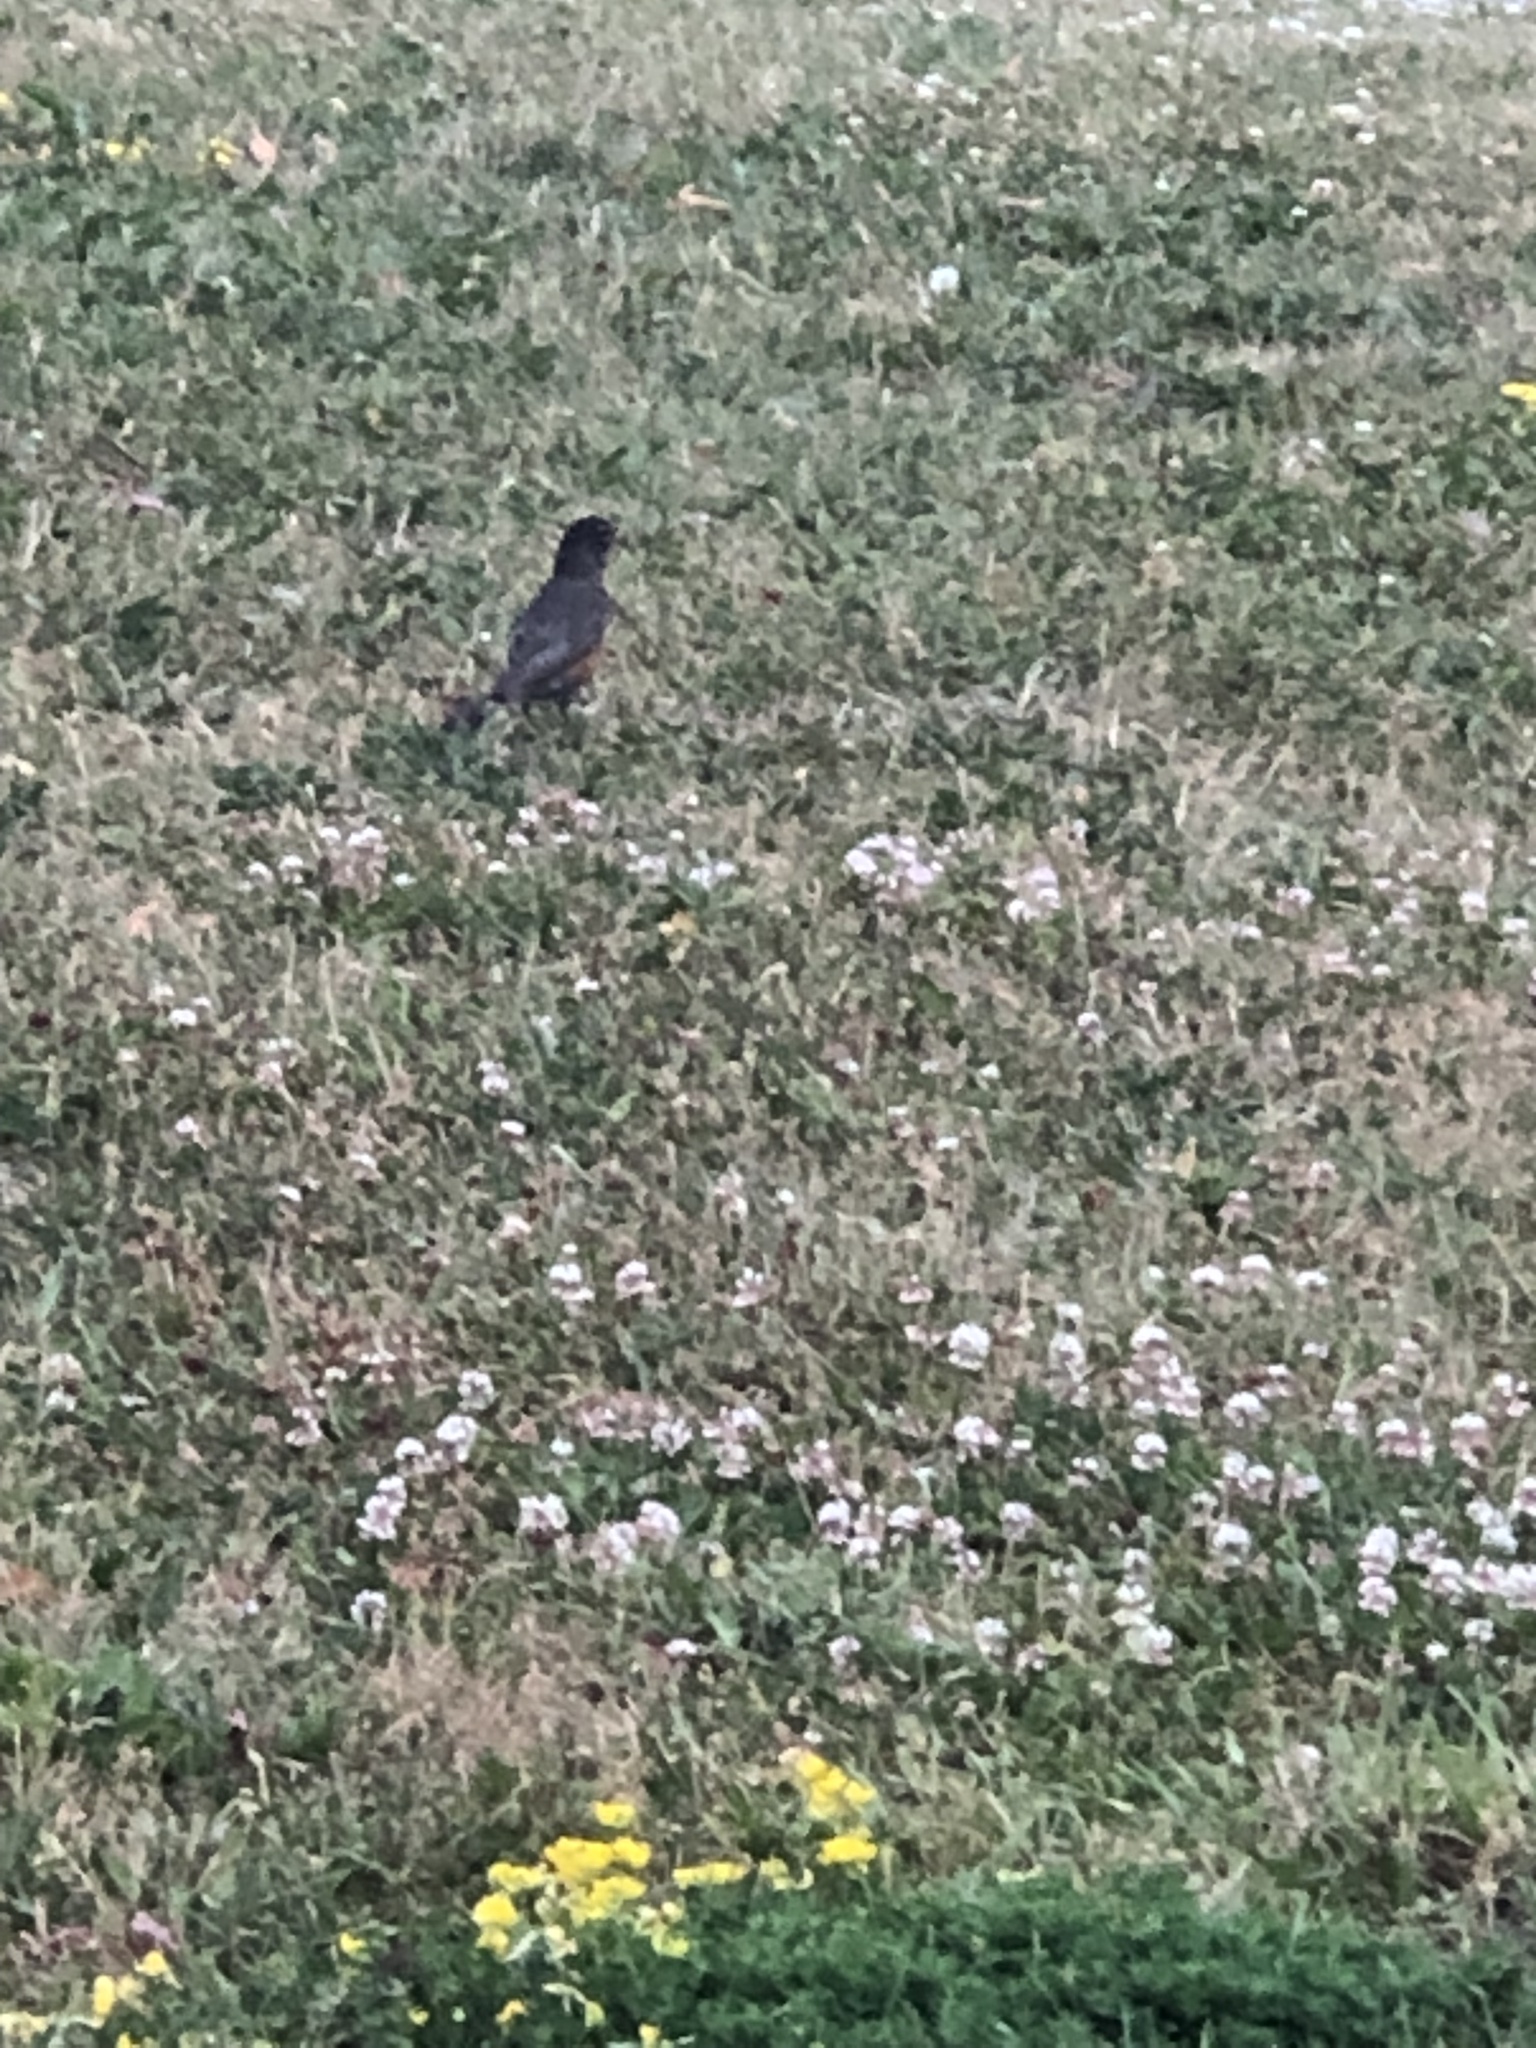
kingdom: Animalia
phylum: Chordata
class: Aves
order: Passeriformes
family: Turdidae
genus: Turdus
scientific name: Turdus migratorius
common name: American robin
